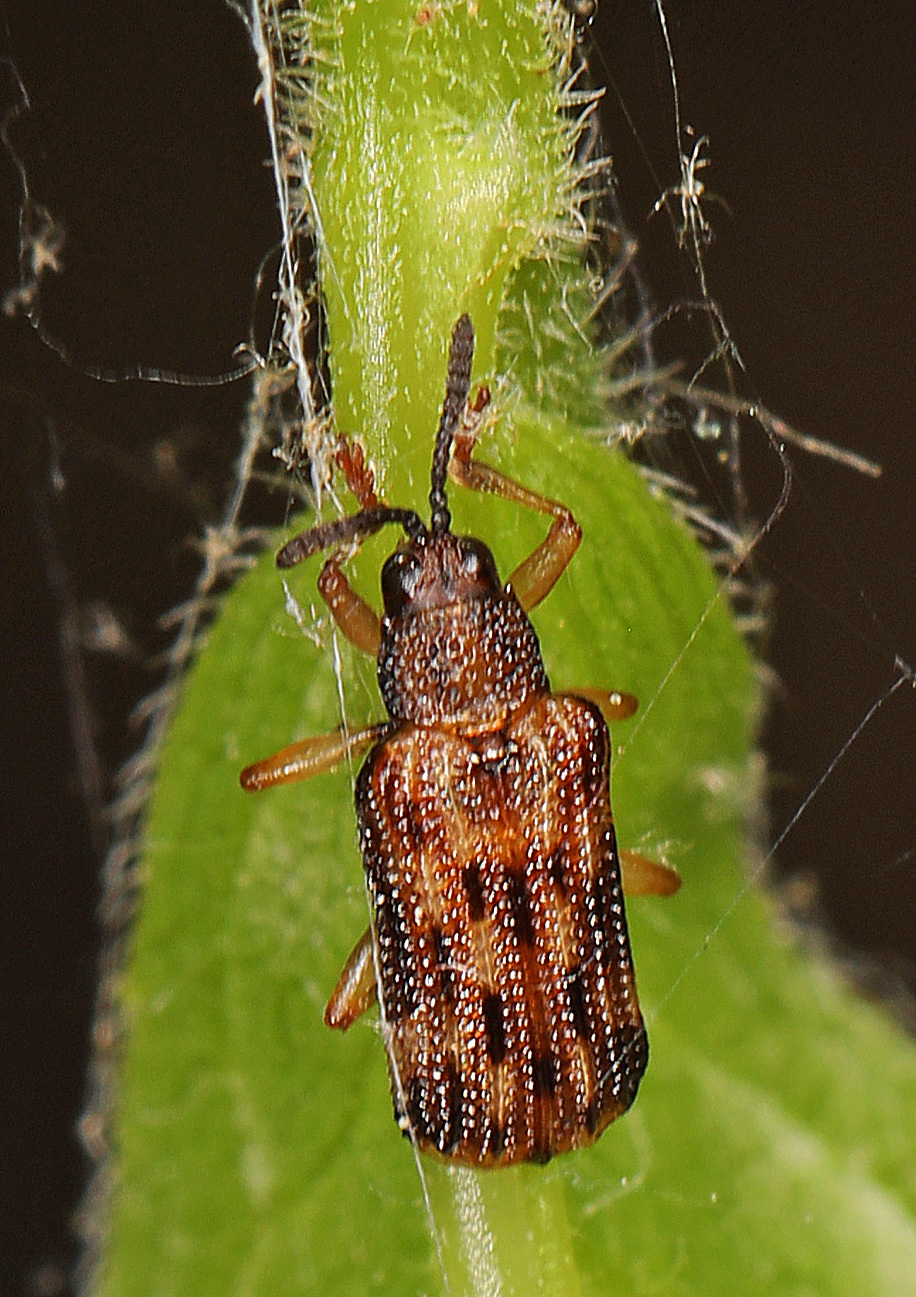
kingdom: Animalia
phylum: Arthropoda
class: Insecta
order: Coleoptera
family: Chrysomelidae
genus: Sumitrosis
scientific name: Sumitrosis inaequalis
